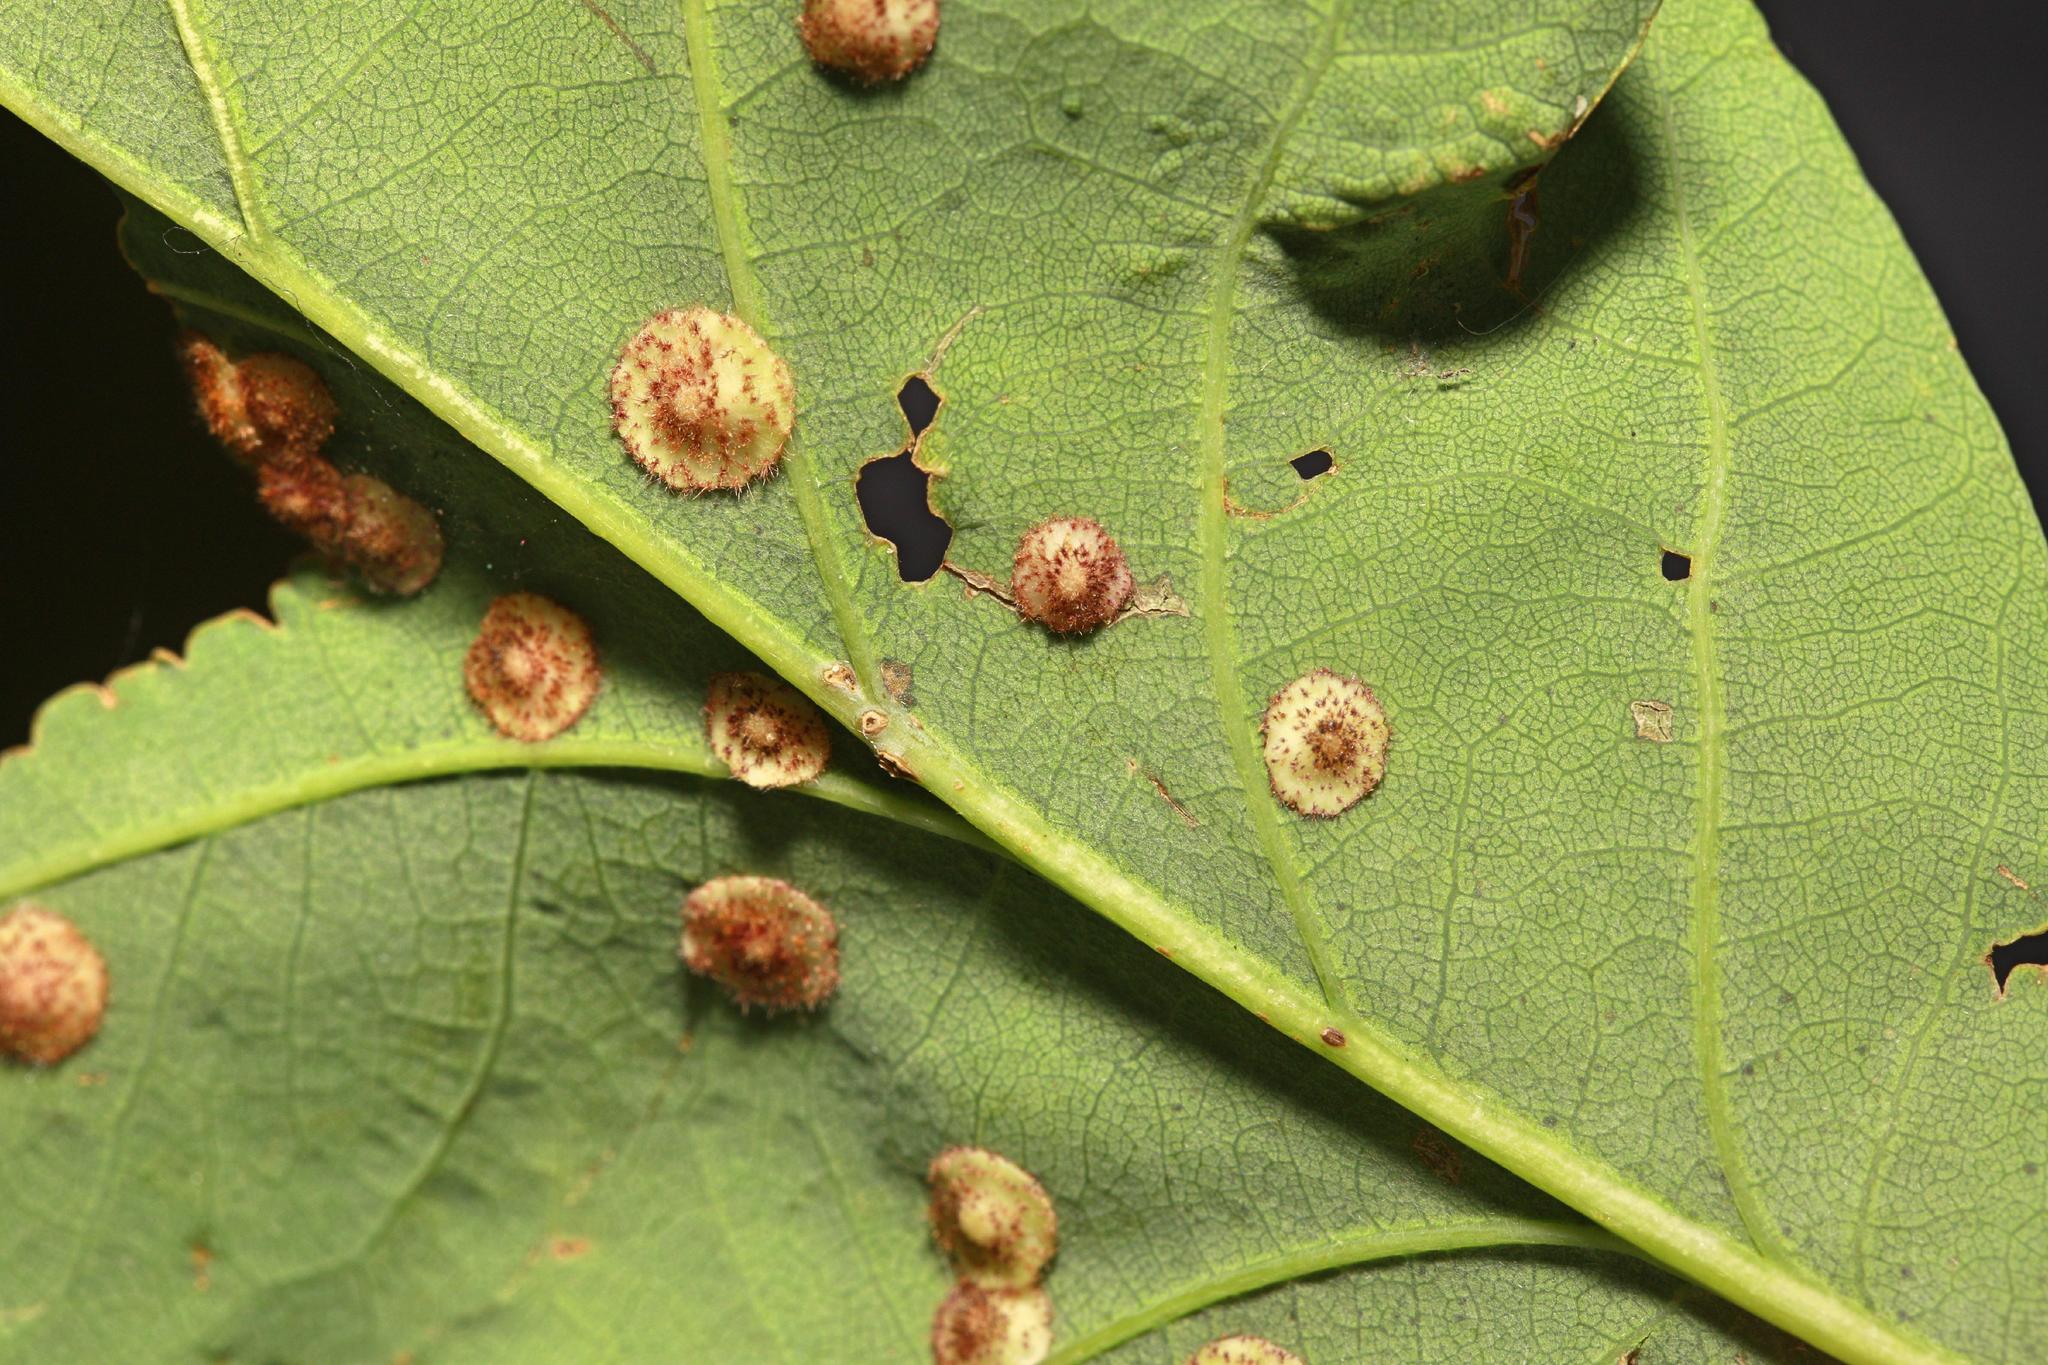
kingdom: Animalia
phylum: Arthropoda
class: Insecta
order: Hymenoptera
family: Cynipidae
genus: Neuroterus
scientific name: Neuroterus quercusbaccarum
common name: Common spangle gall
